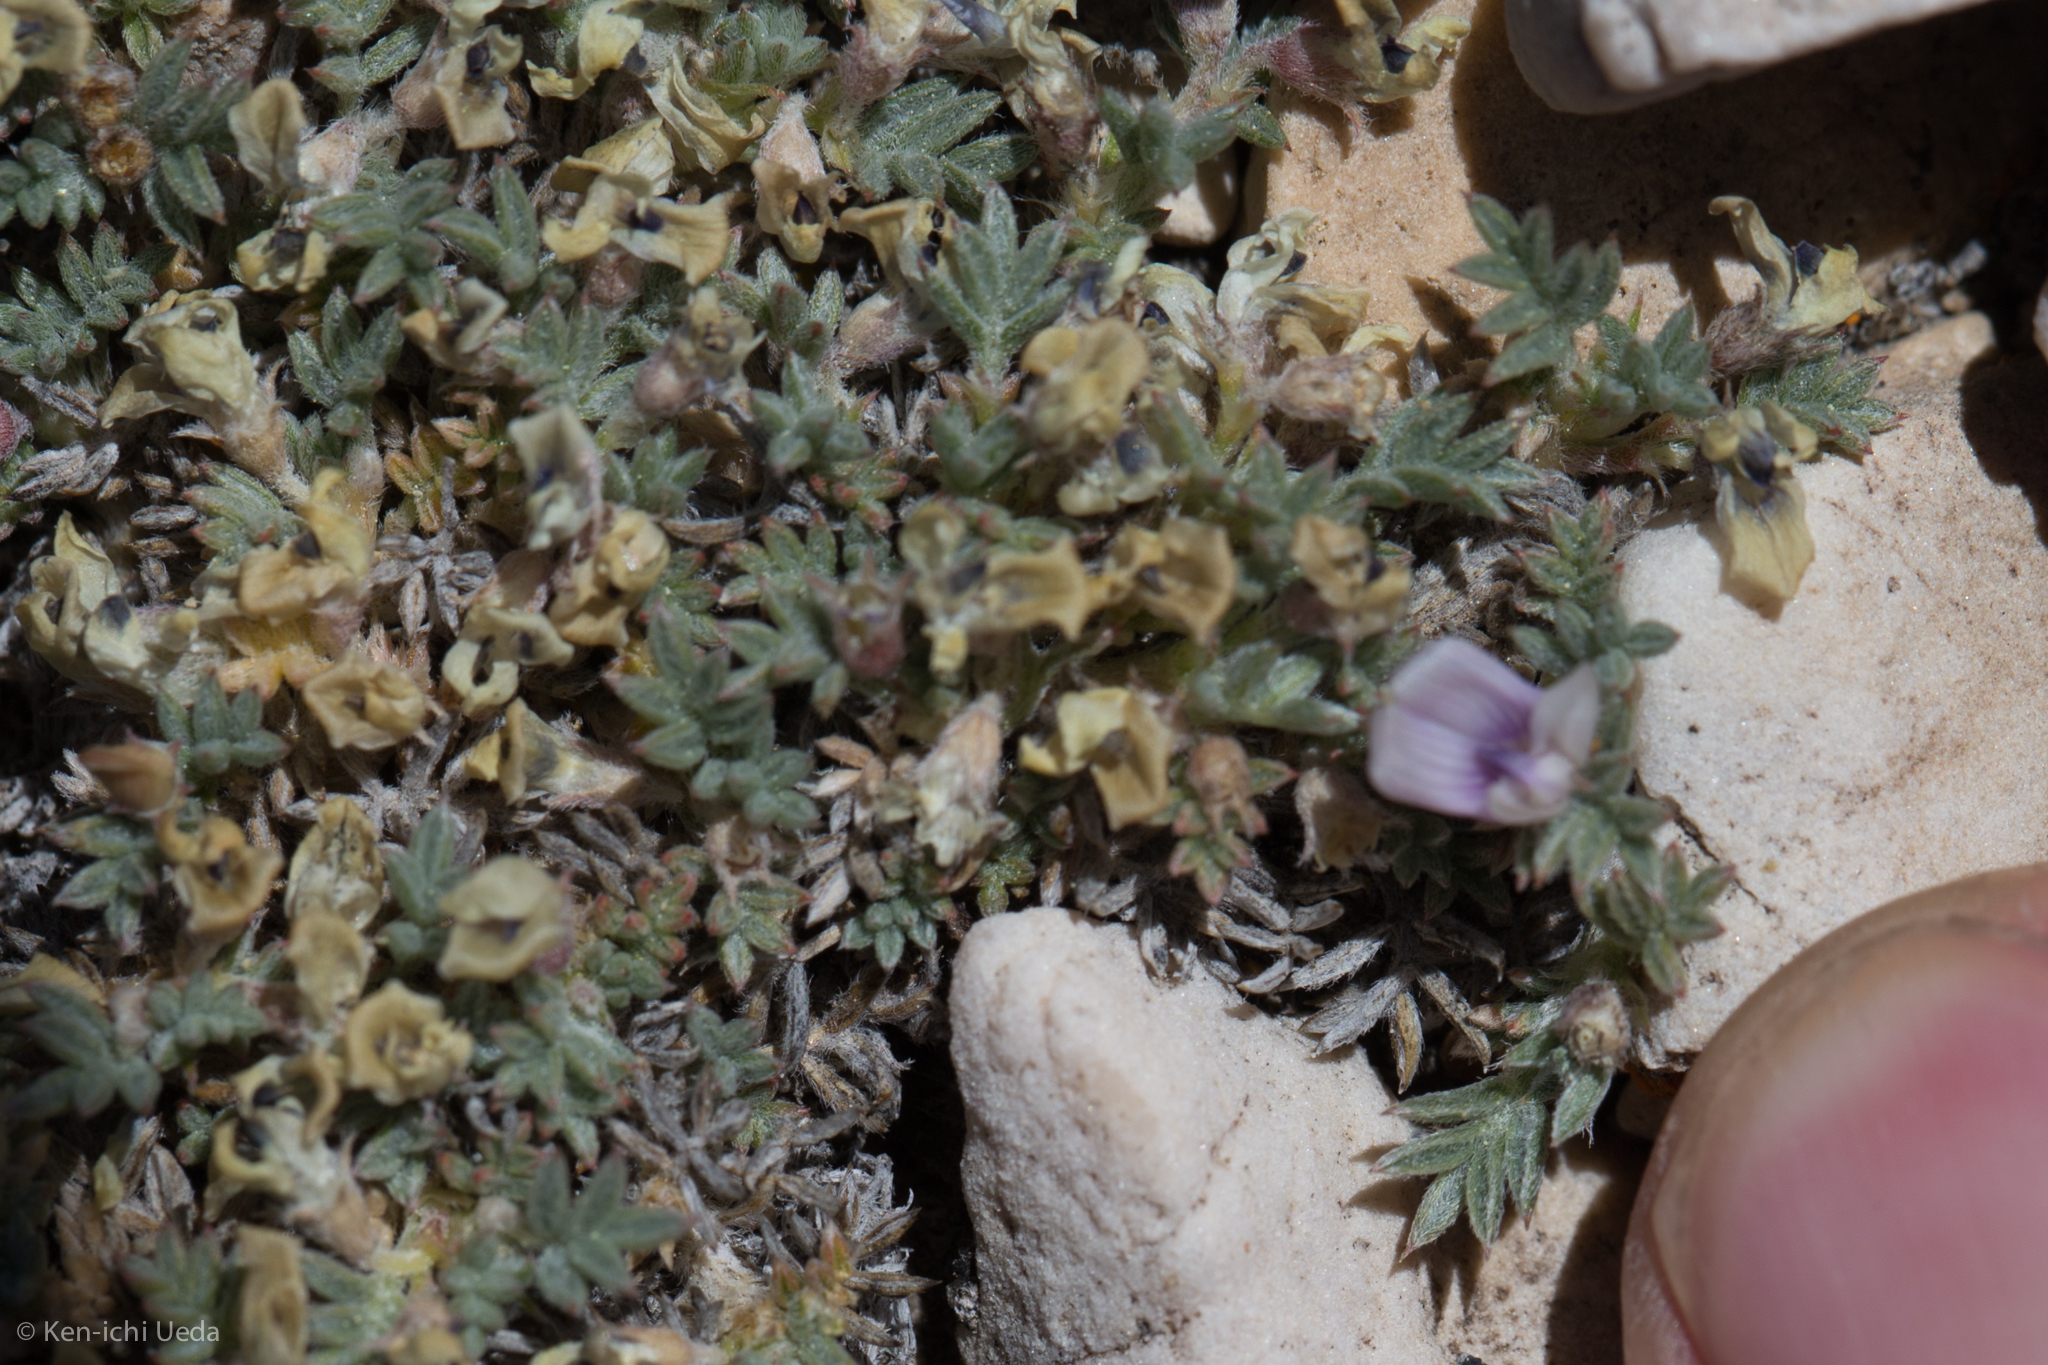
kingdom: Plantae
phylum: Tracheophyta
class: Magnoliopsida
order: Fabales
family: Fabaceae
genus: Astragalus
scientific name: Astragalus kentrophyta
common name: Prickly milk-vetch
